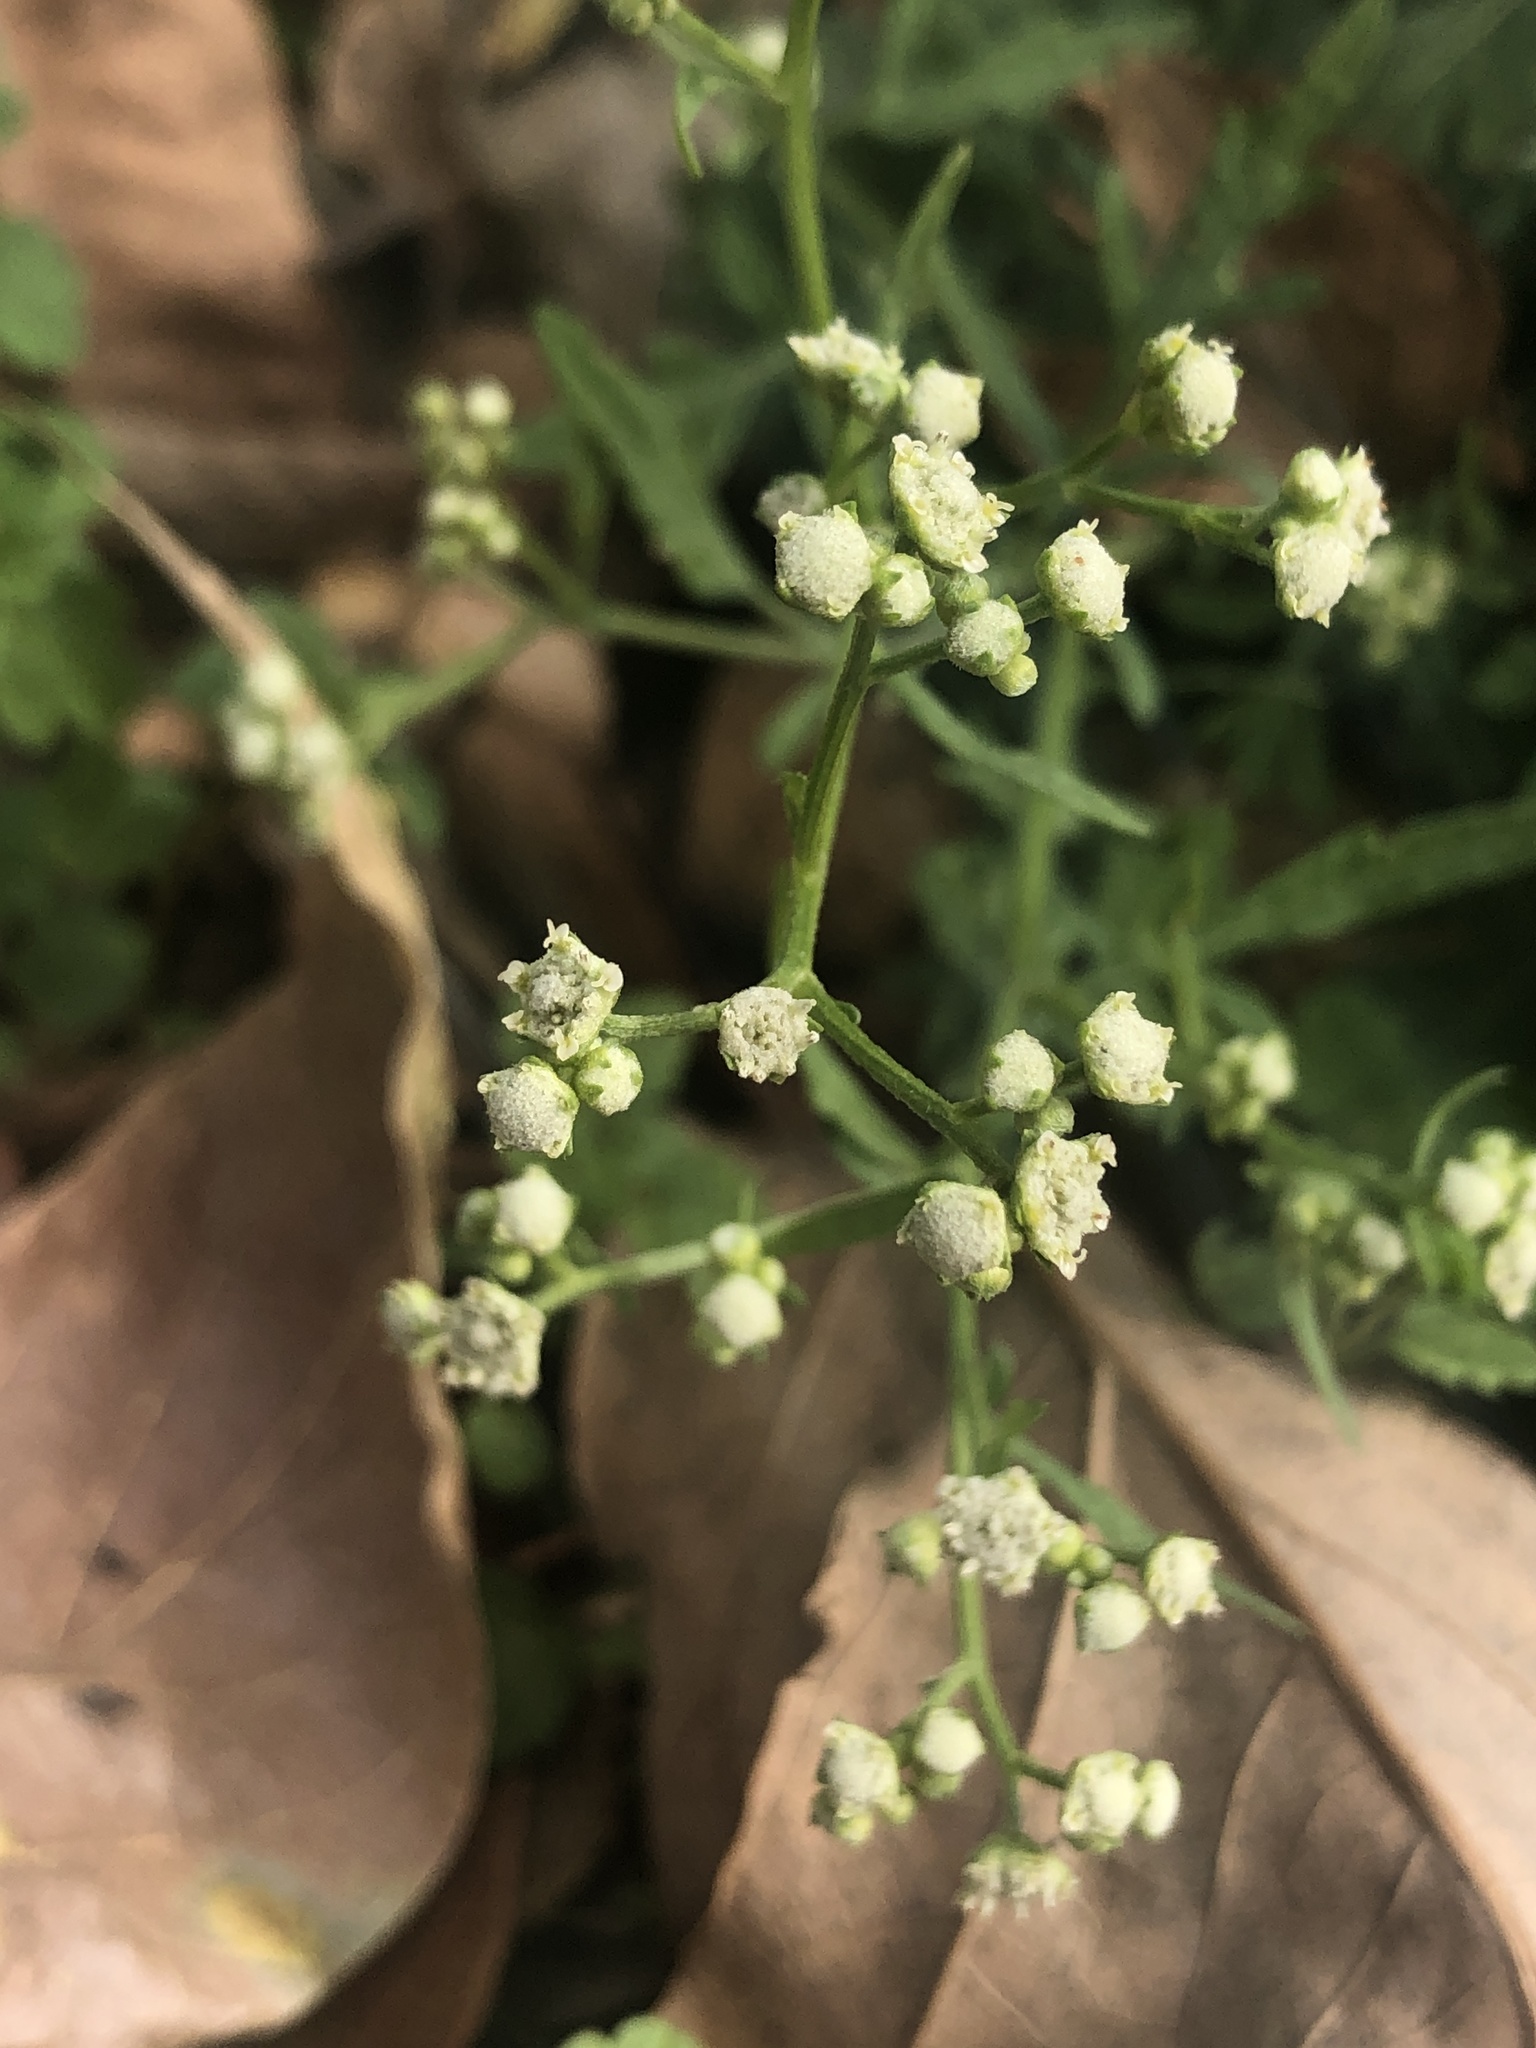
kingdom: Plantae
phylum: Tracheophyta
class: Magnoliopsida
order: Asterales
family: Asteraceae
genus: Parthenium
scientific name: Parthenium hysterophorus
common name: Santa maria feverfew
